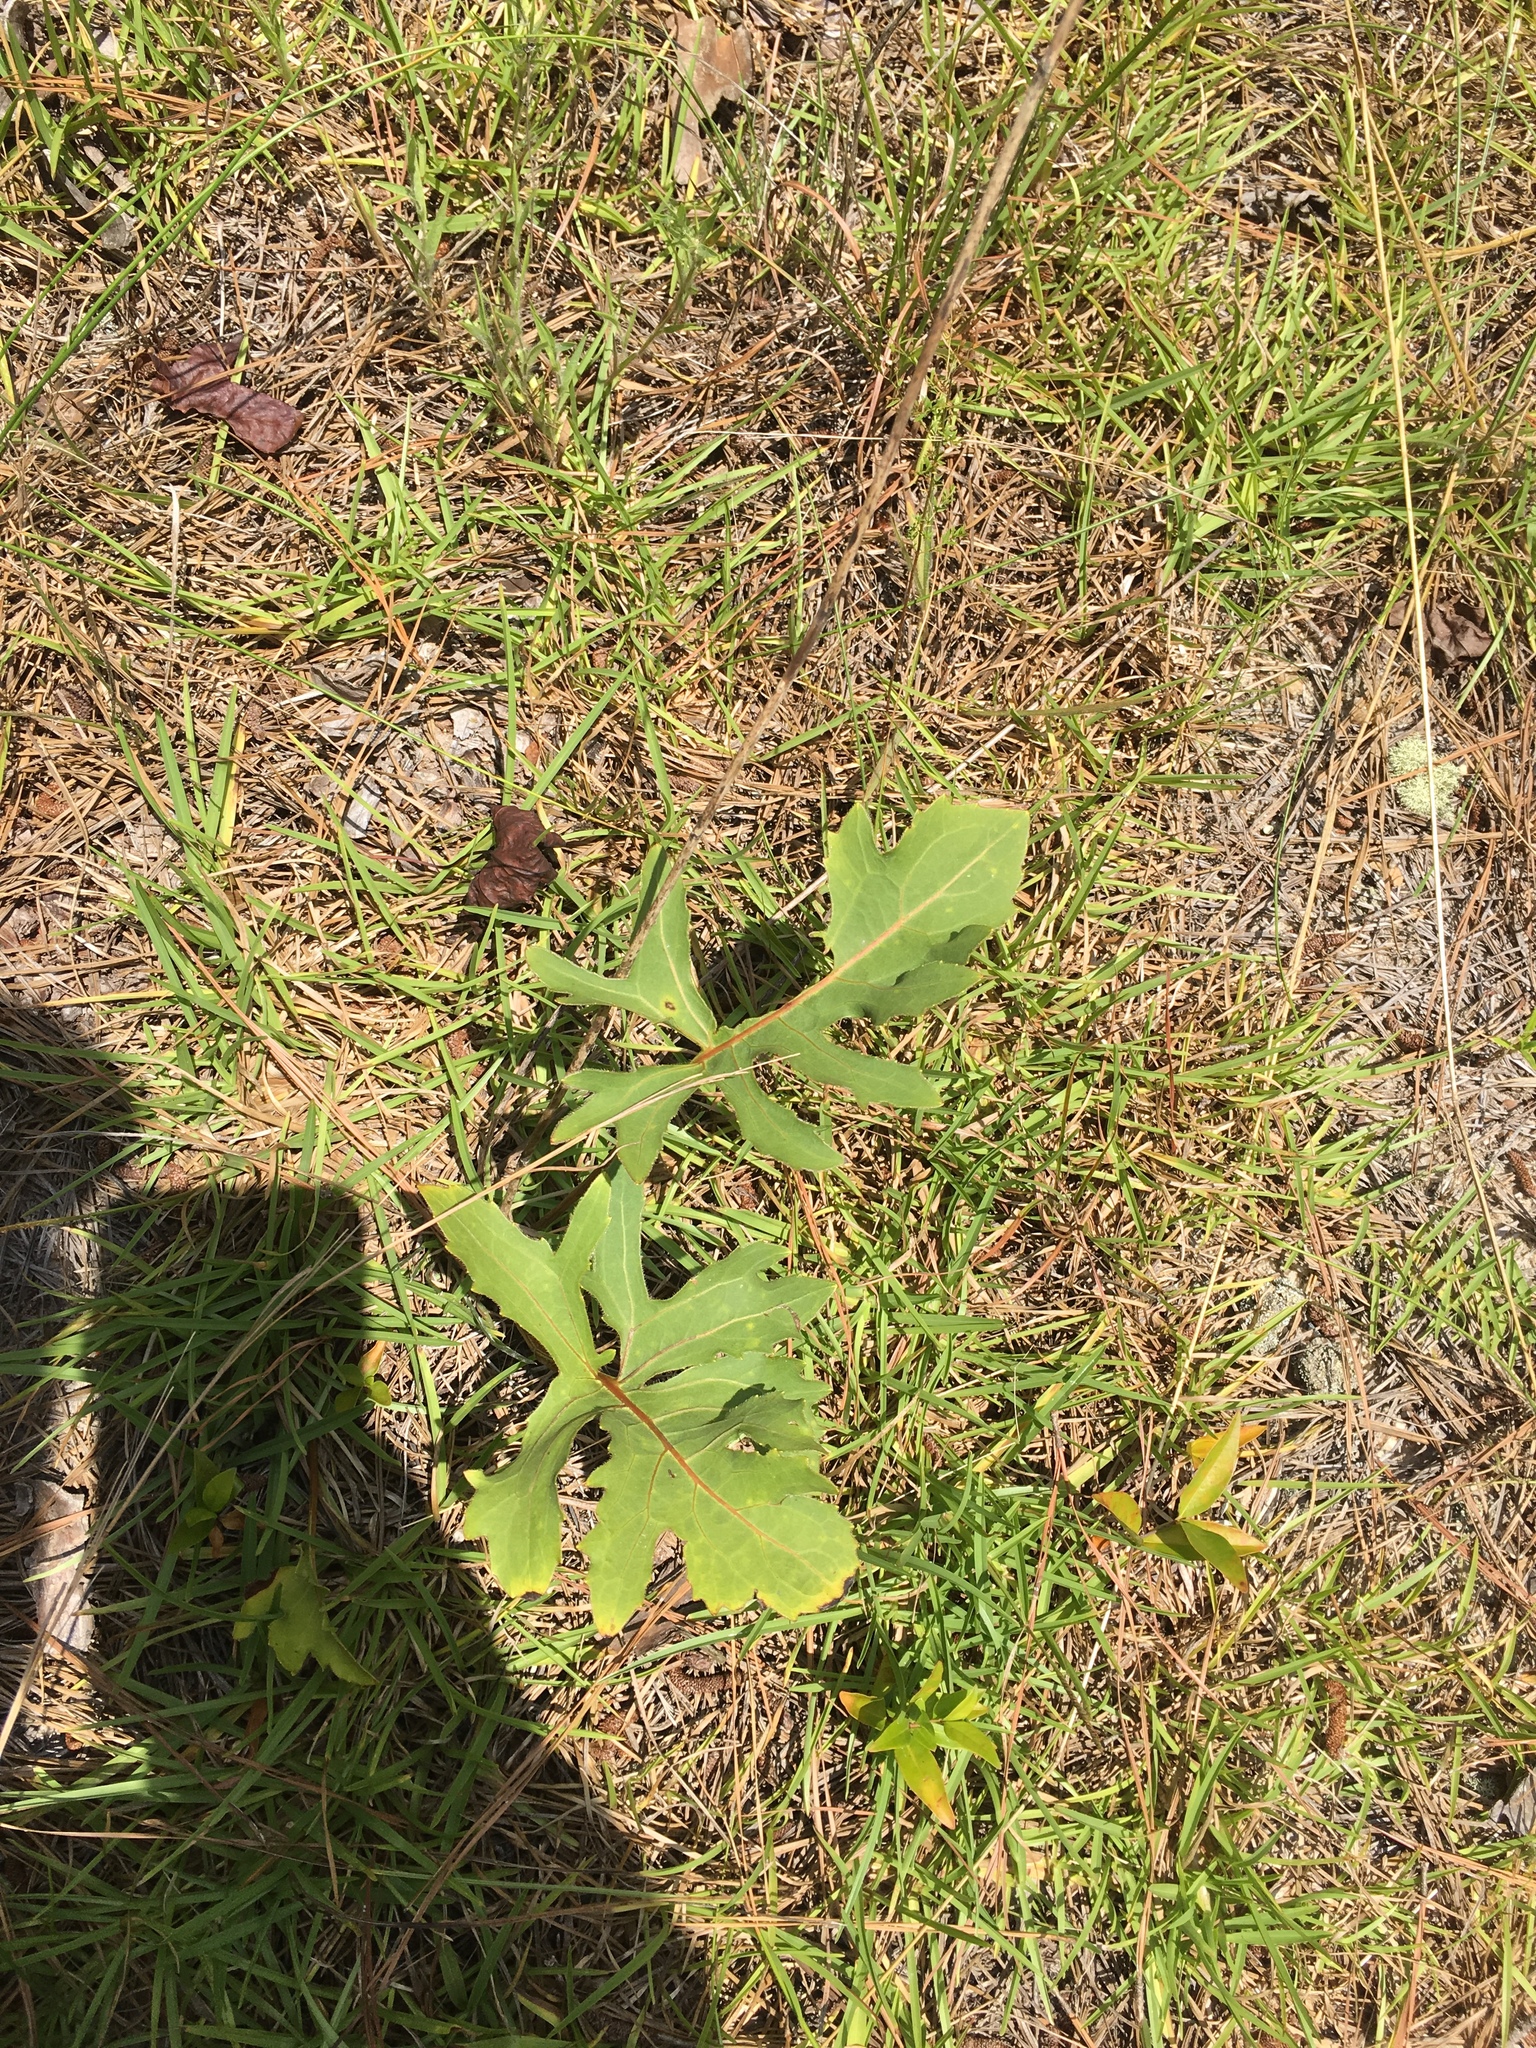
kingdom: Plantae
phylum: Tracheophyta
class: Magnoliopsida
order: Asterales
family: Asteraceae
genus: Silphium
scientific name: Silphium compositum
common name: Lesser basal-leaf rosinweed
